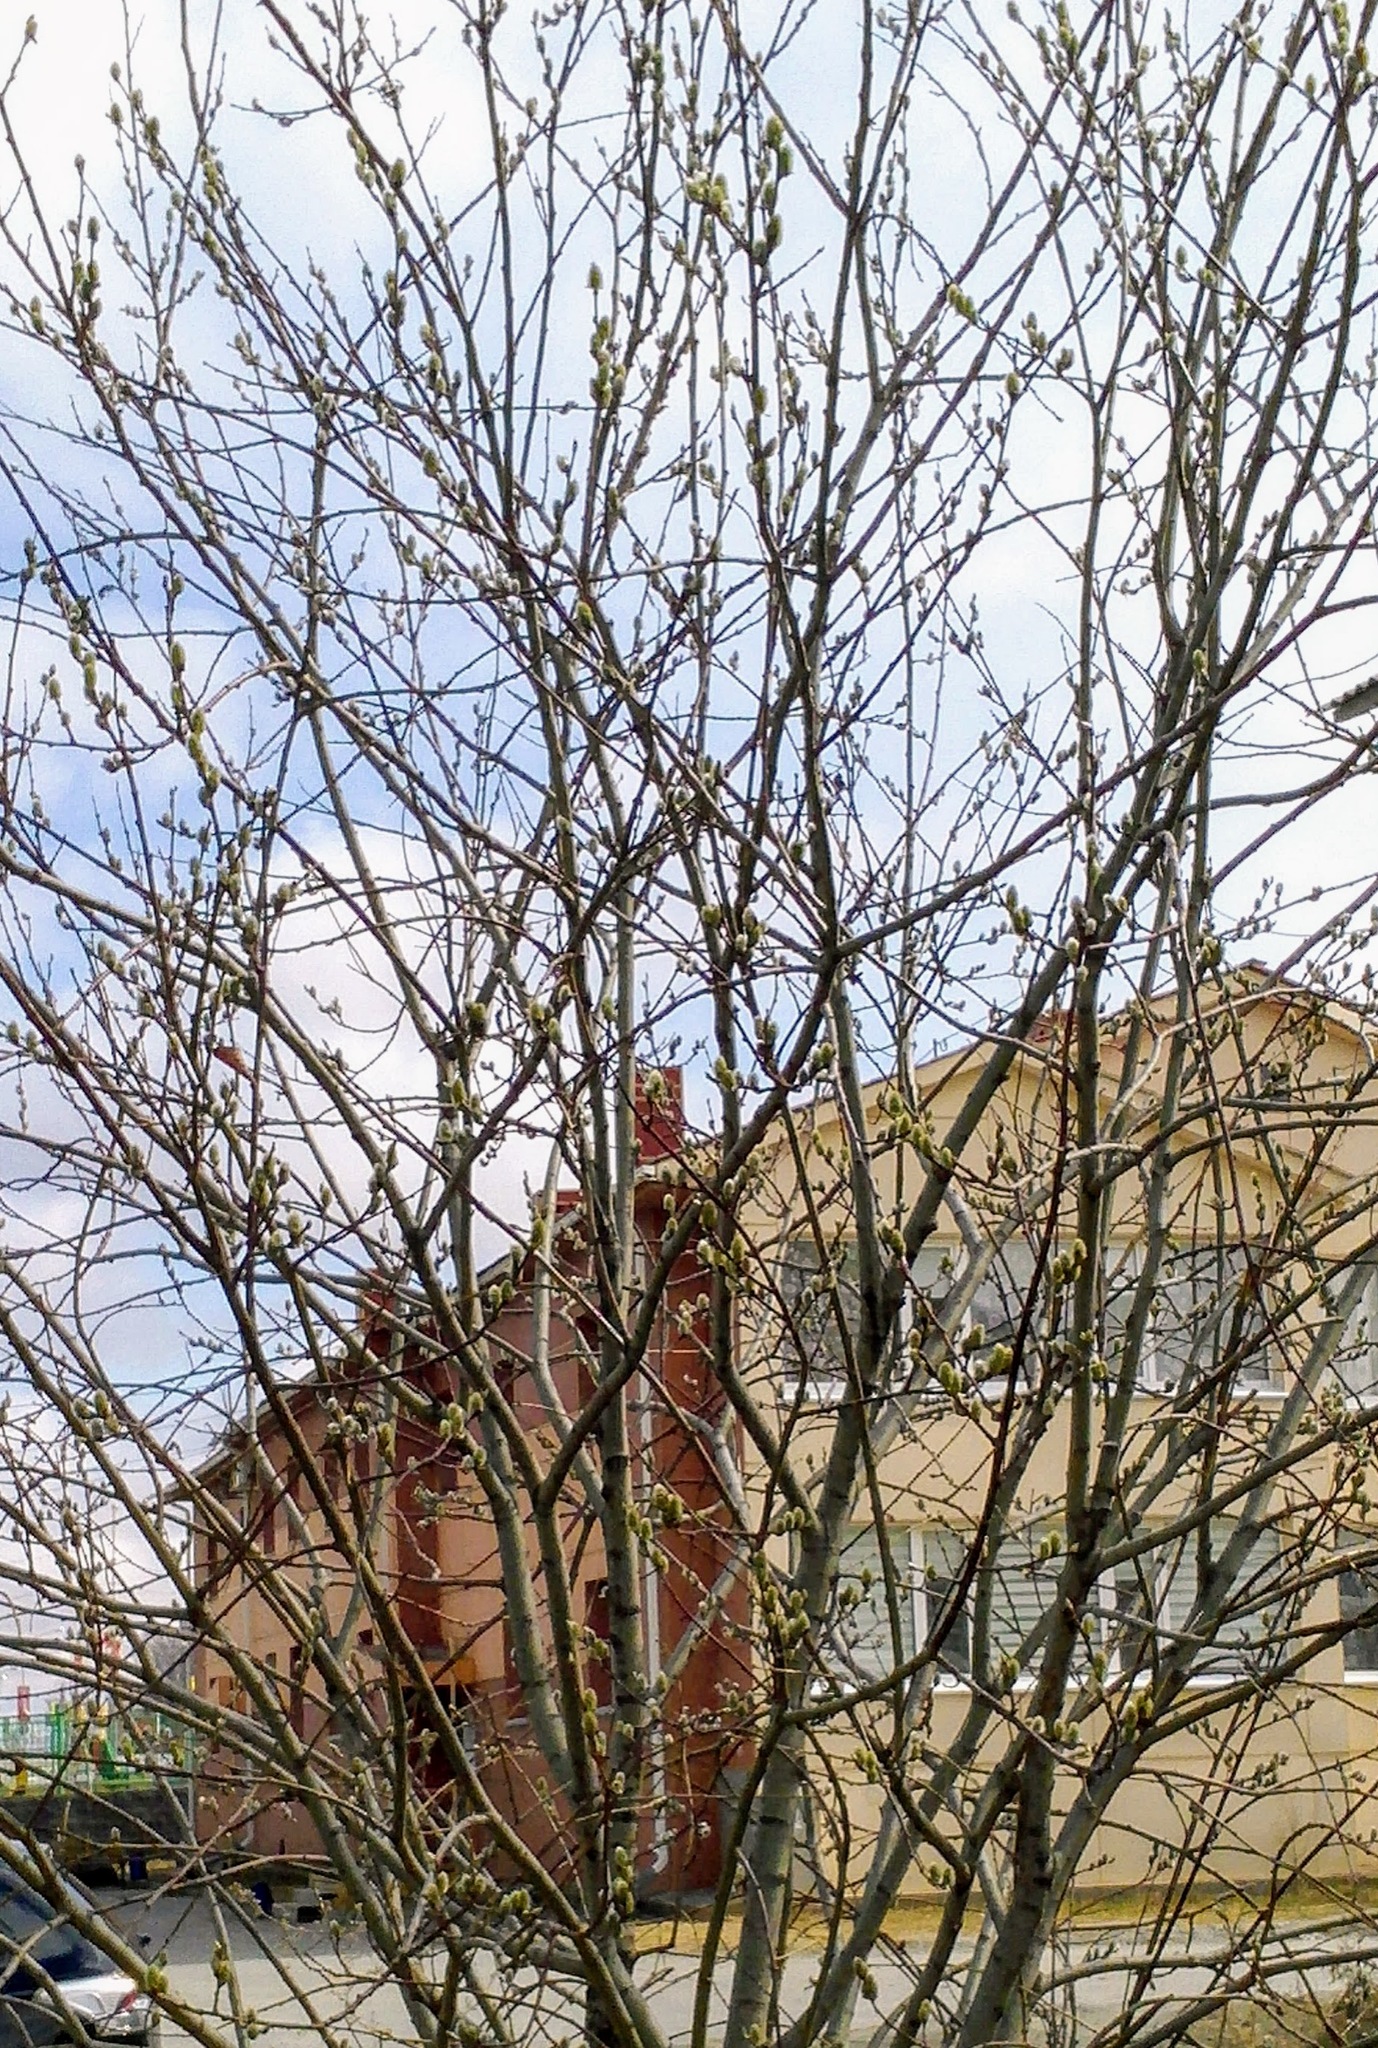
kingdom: Plantae
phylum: Tracheophyta
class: Magnoliopsida
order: Malpighiales
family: Salicaceae
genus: Salix
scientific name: Salix caprea
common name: Goat willow
